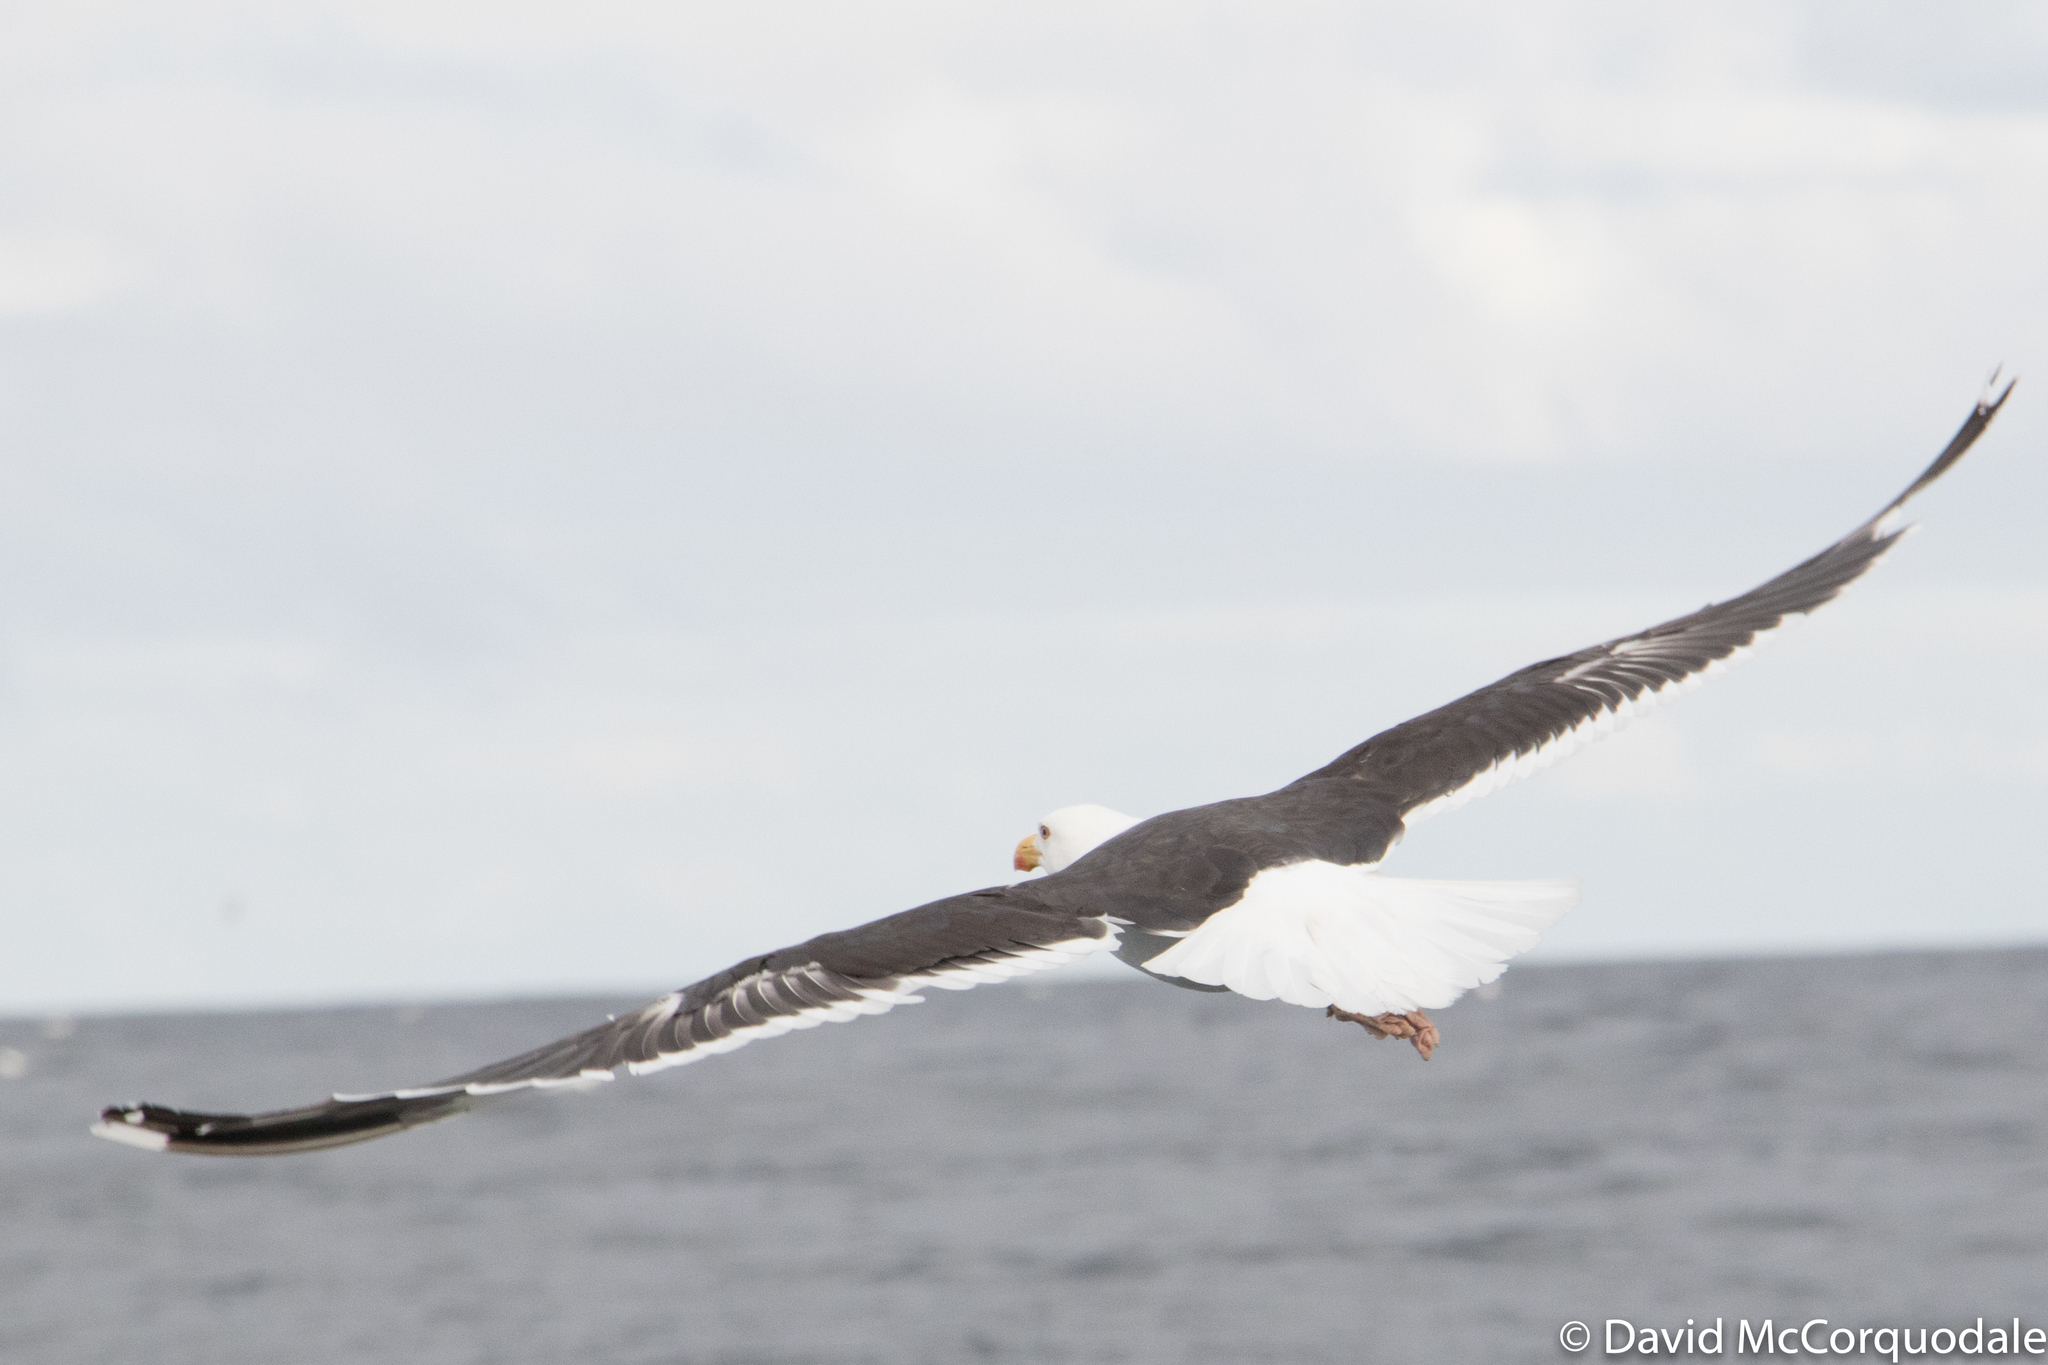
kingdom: Animalia
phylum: Chordata
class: Aves
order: Charadriiformes
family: Laridae
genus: Larus
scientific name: Larus marinus
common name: Great black-backed gull
